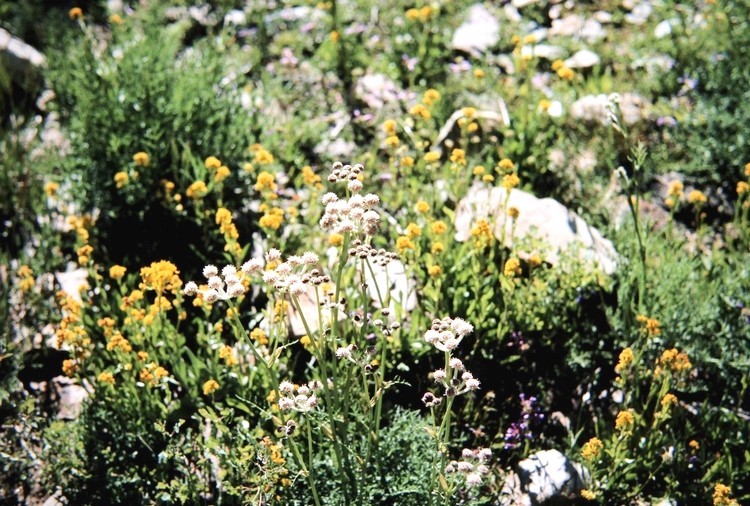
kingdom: Plantae
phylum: Tracheophyta
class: Magnoliopsida
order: Apiales
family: Apiaceae
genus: Angelica
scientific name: Angelica capitellata
